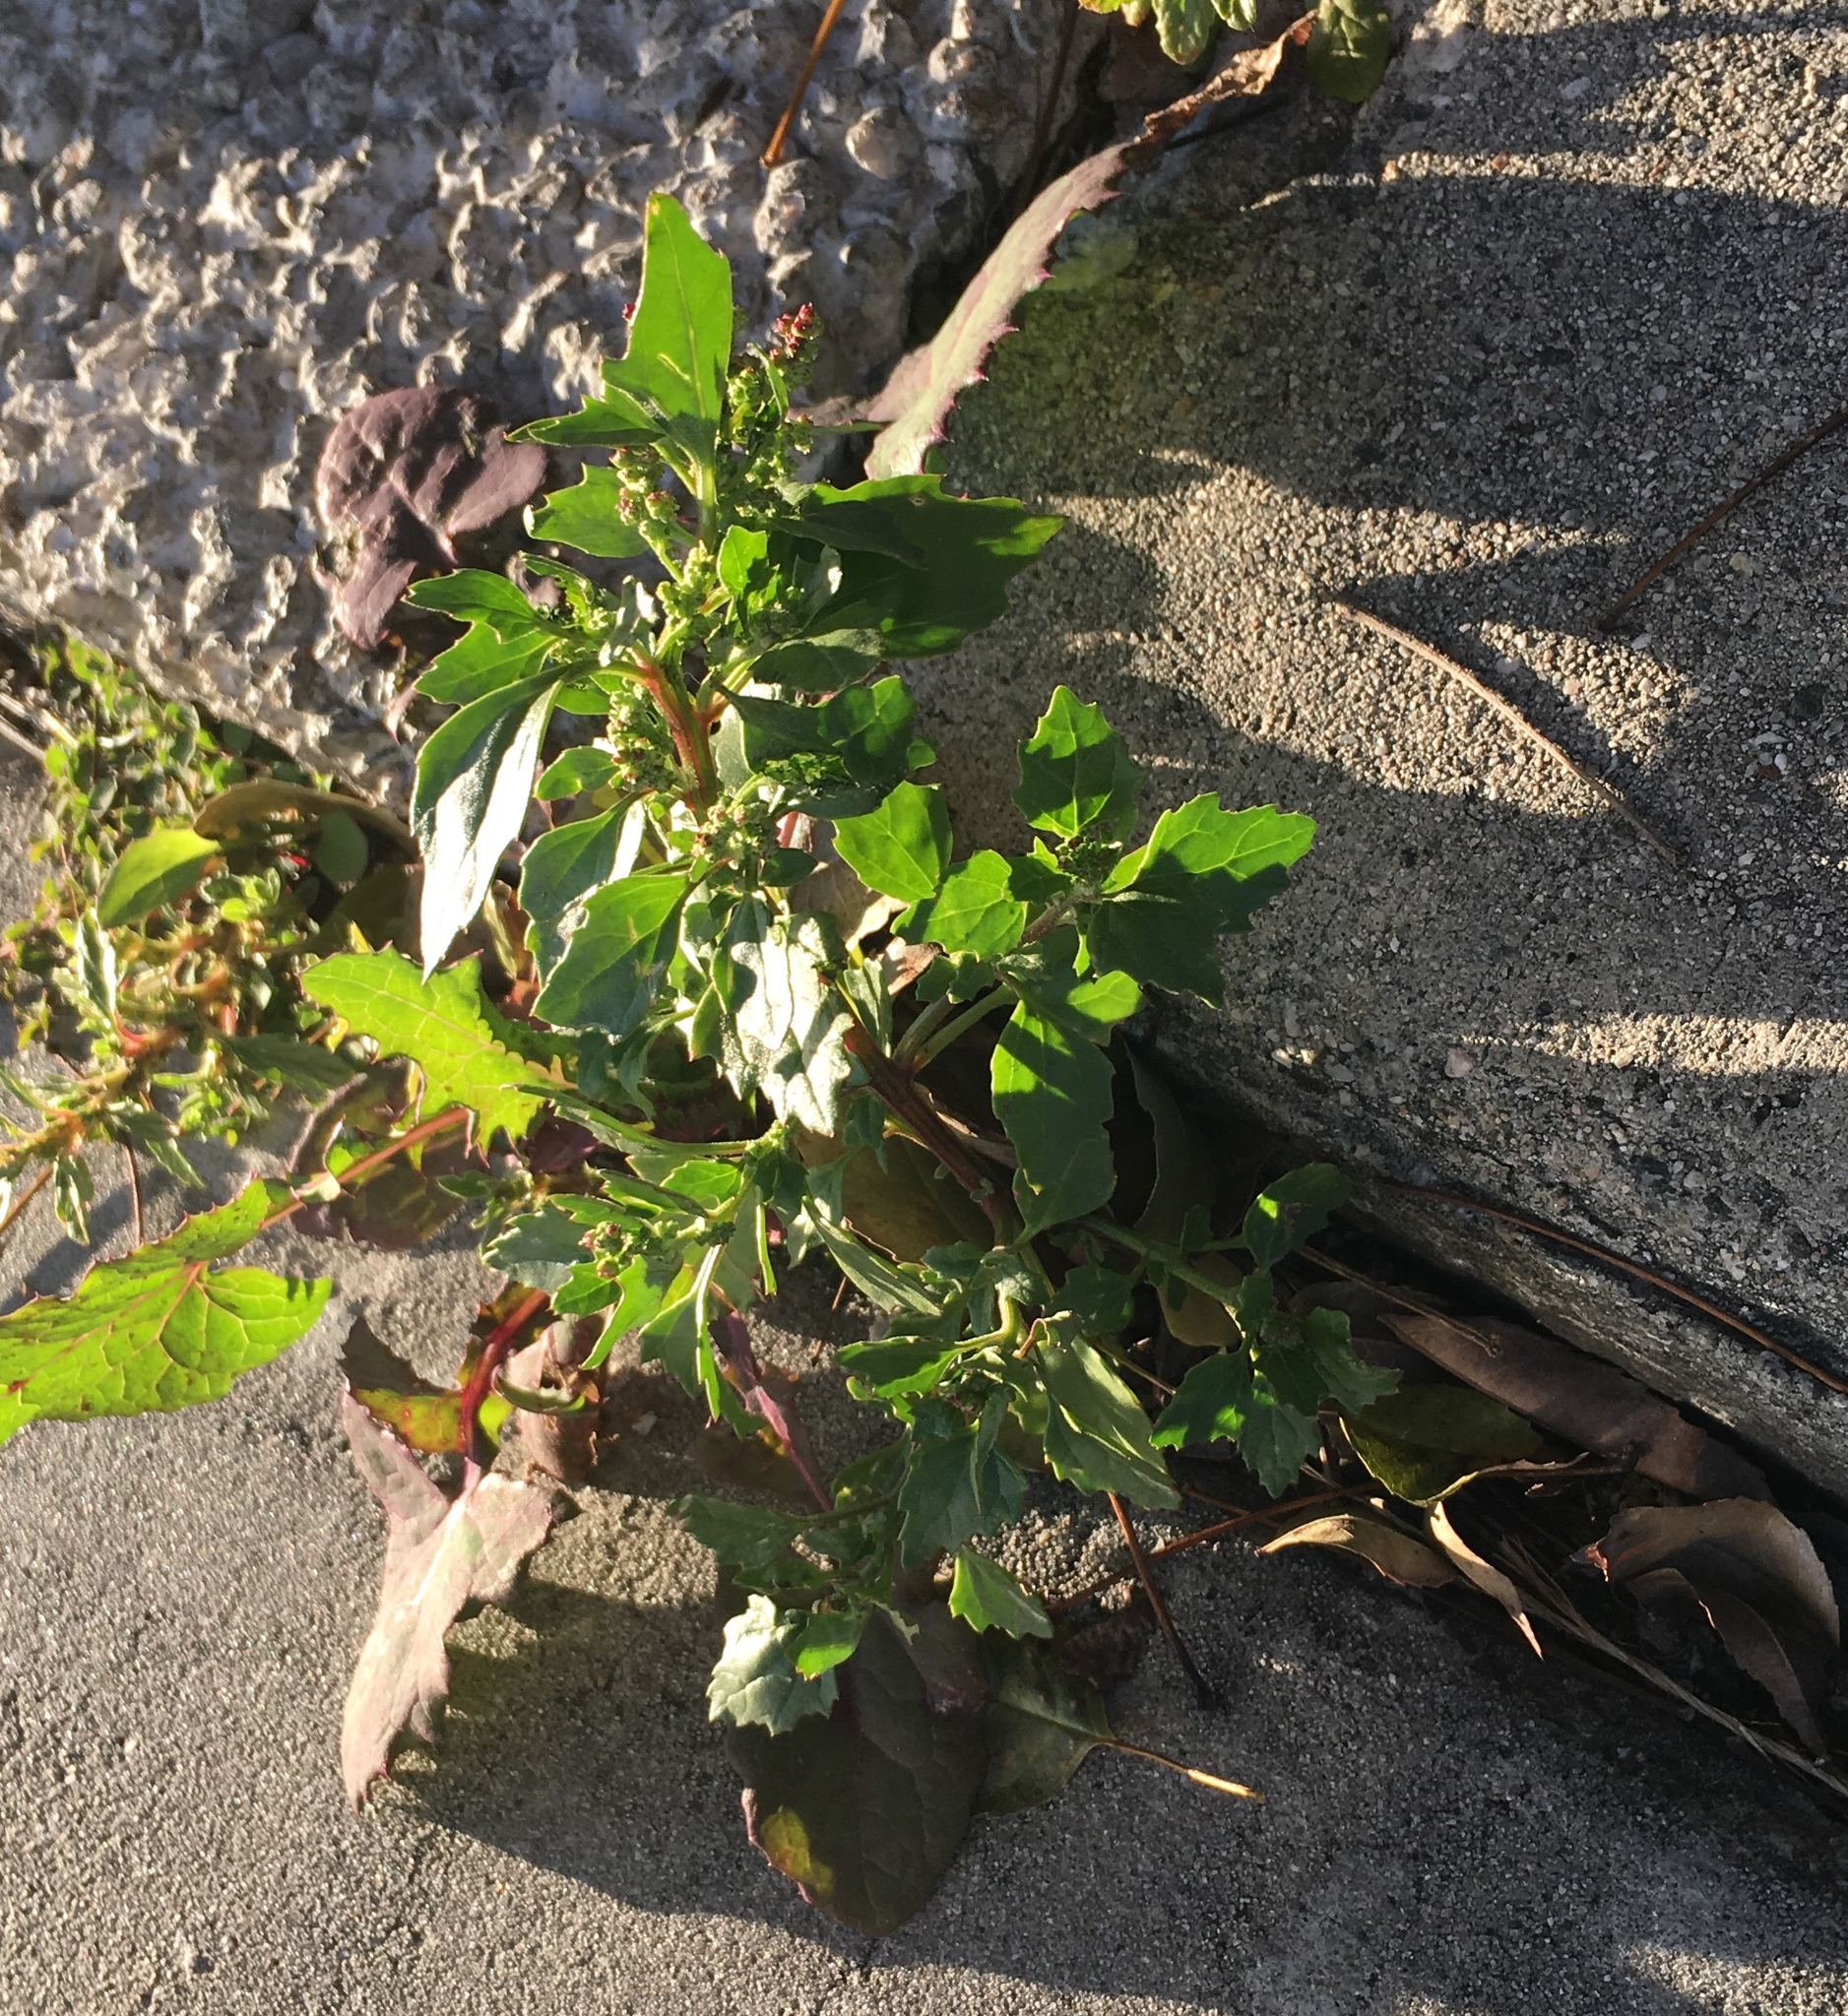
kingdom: Plantae
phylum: Tracheophyta
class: Magnoliopsida
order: Caryophyllales
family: Amaranthaceae
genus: Chenopodiastrum
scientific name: Chenopodiastrum murale
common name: Sowbane
